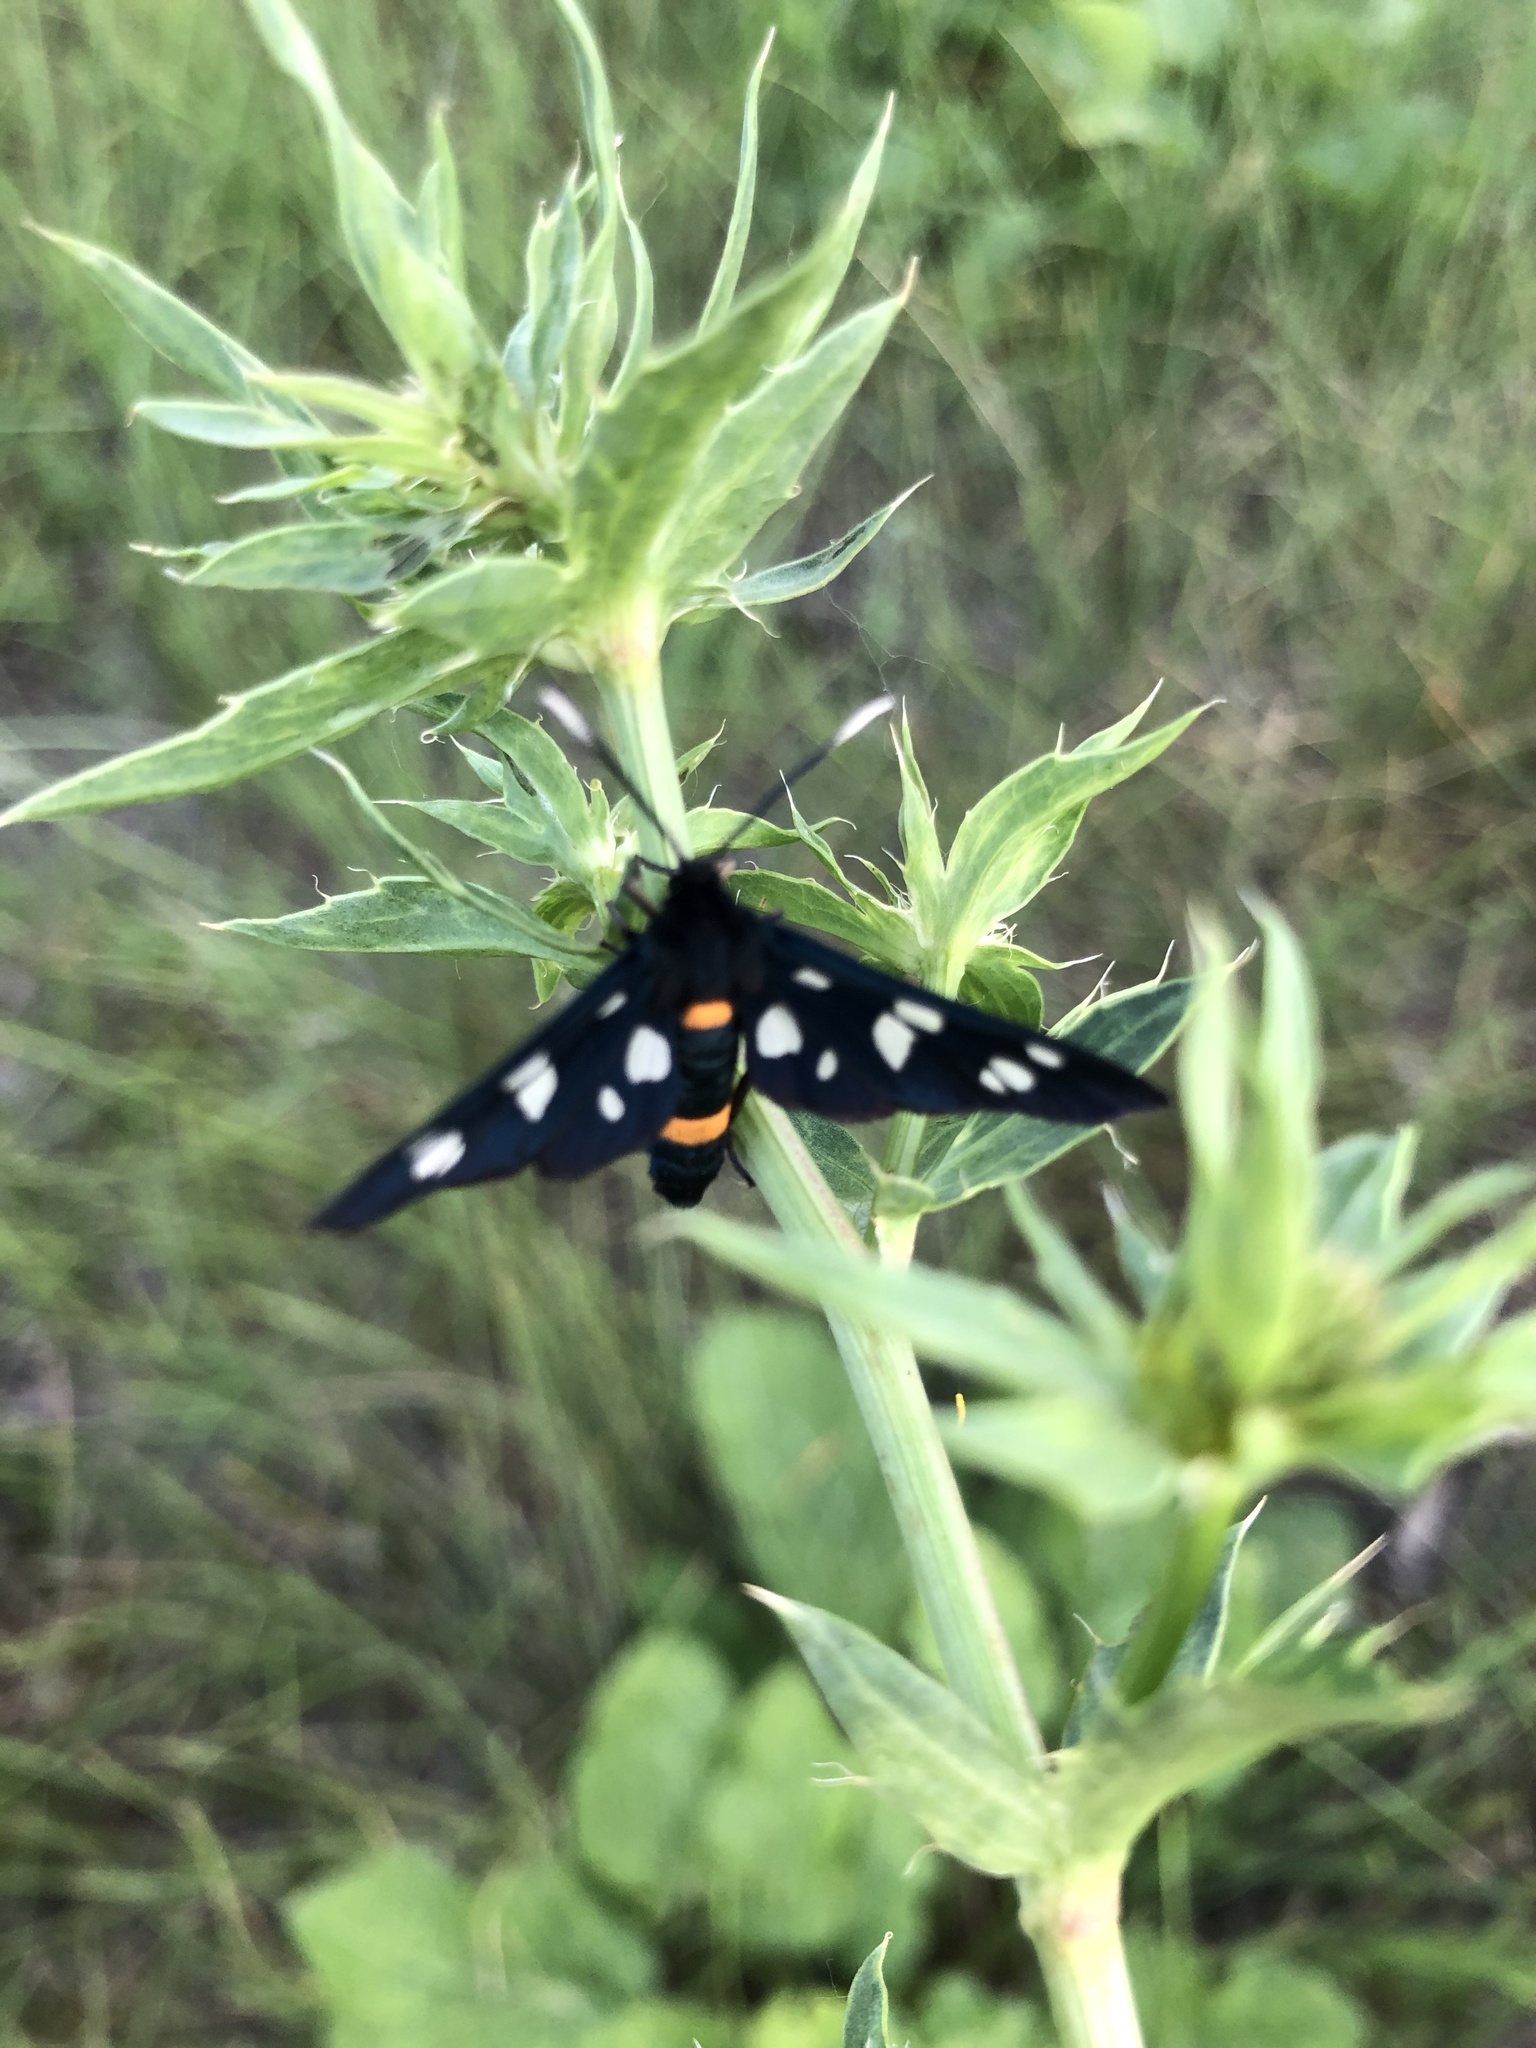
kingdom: Animalia
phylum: Arthropoda
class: Insecta
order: Lepidoptera
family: Erebidae
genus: Amata
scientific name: Amata nigricornis
